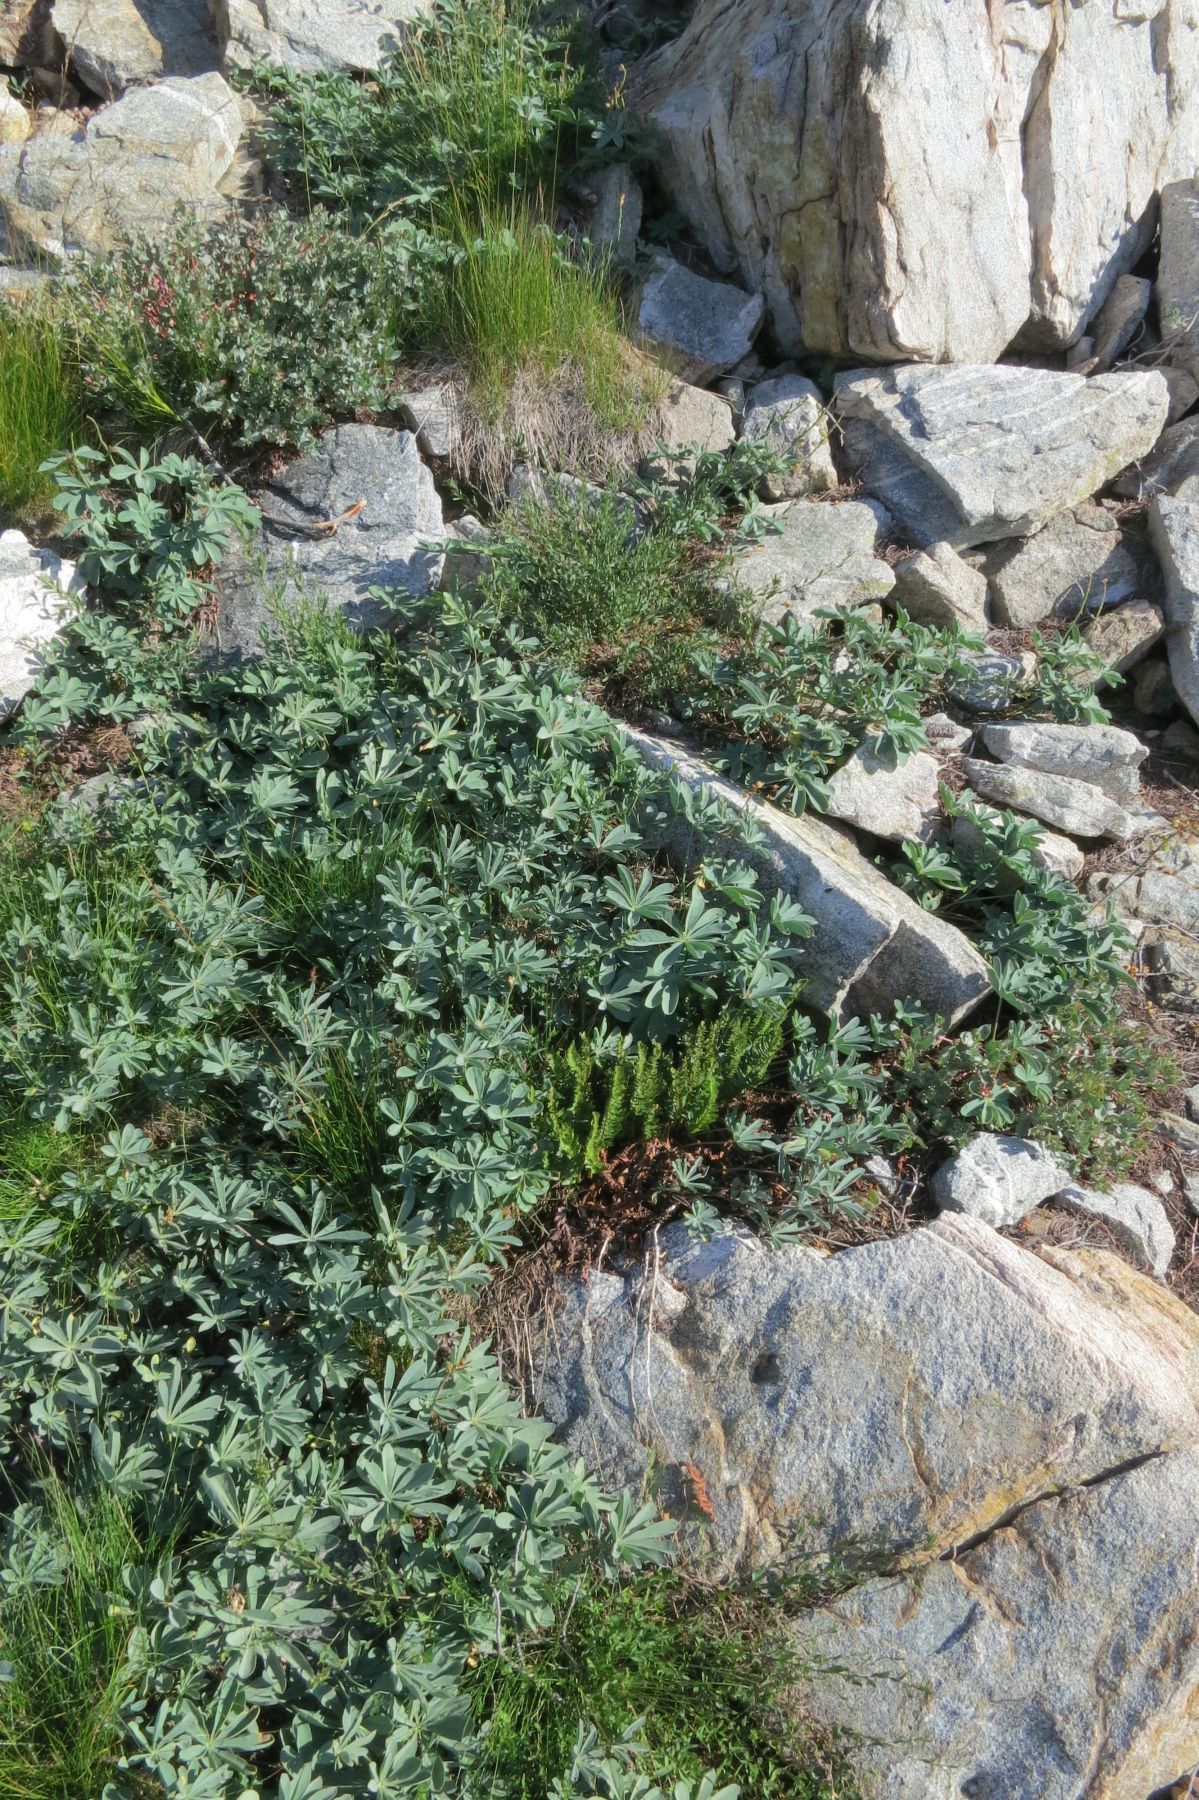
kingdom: Plantae
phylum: Tracheophyta
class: Polypodiopsida
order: Polypodiales
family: Dryopteridaceae
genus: Polystichum
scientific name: Polystichum scopulinum
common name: Eaton's shield fern
